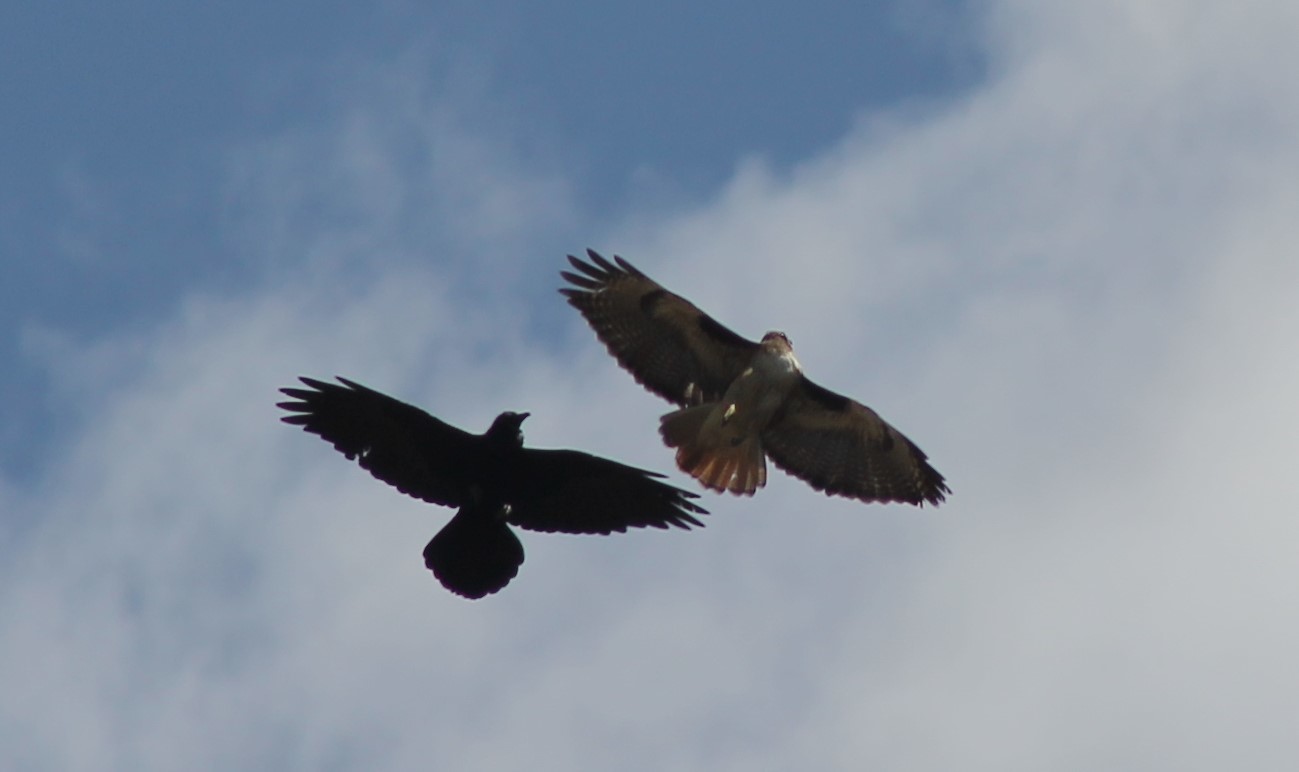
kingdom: Animalia
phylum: Chordata
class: Aves
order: Accipitriformes
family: Accipitridae
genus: Buteo
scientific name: Buteo jamaicensis
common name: Red-tailed hawk
